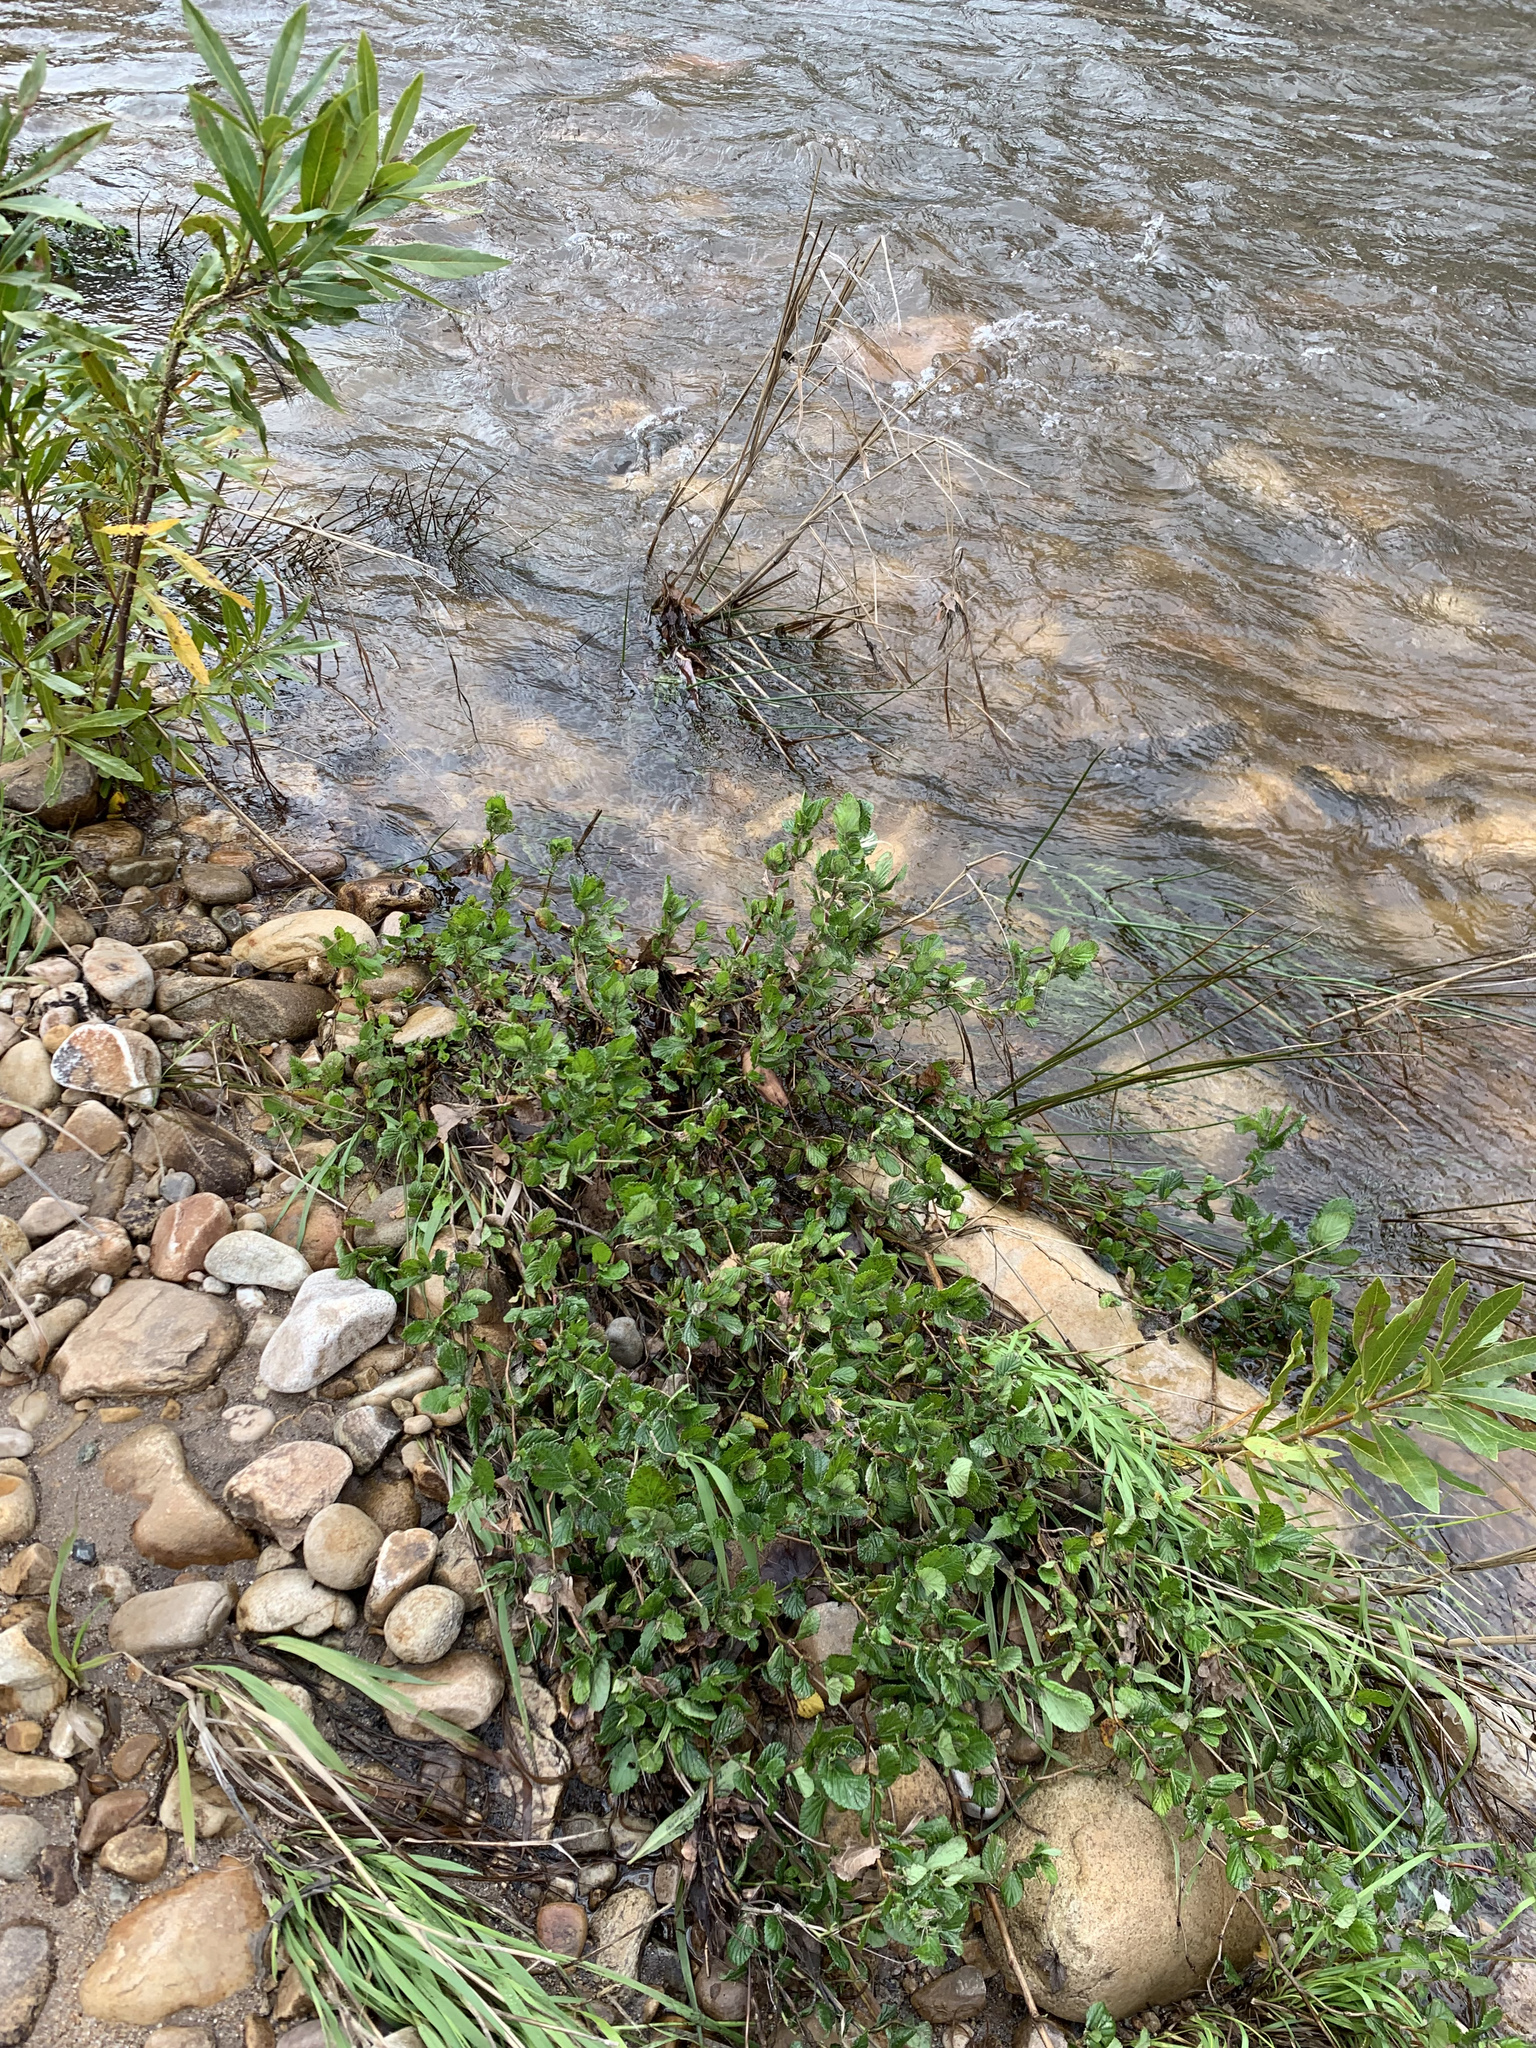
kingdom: Plantae
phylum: Tracheophyta
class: Magnoliopsida
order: Rosales
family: Rosaceae
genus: Cliffortia
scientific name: Cliffortia odorata
